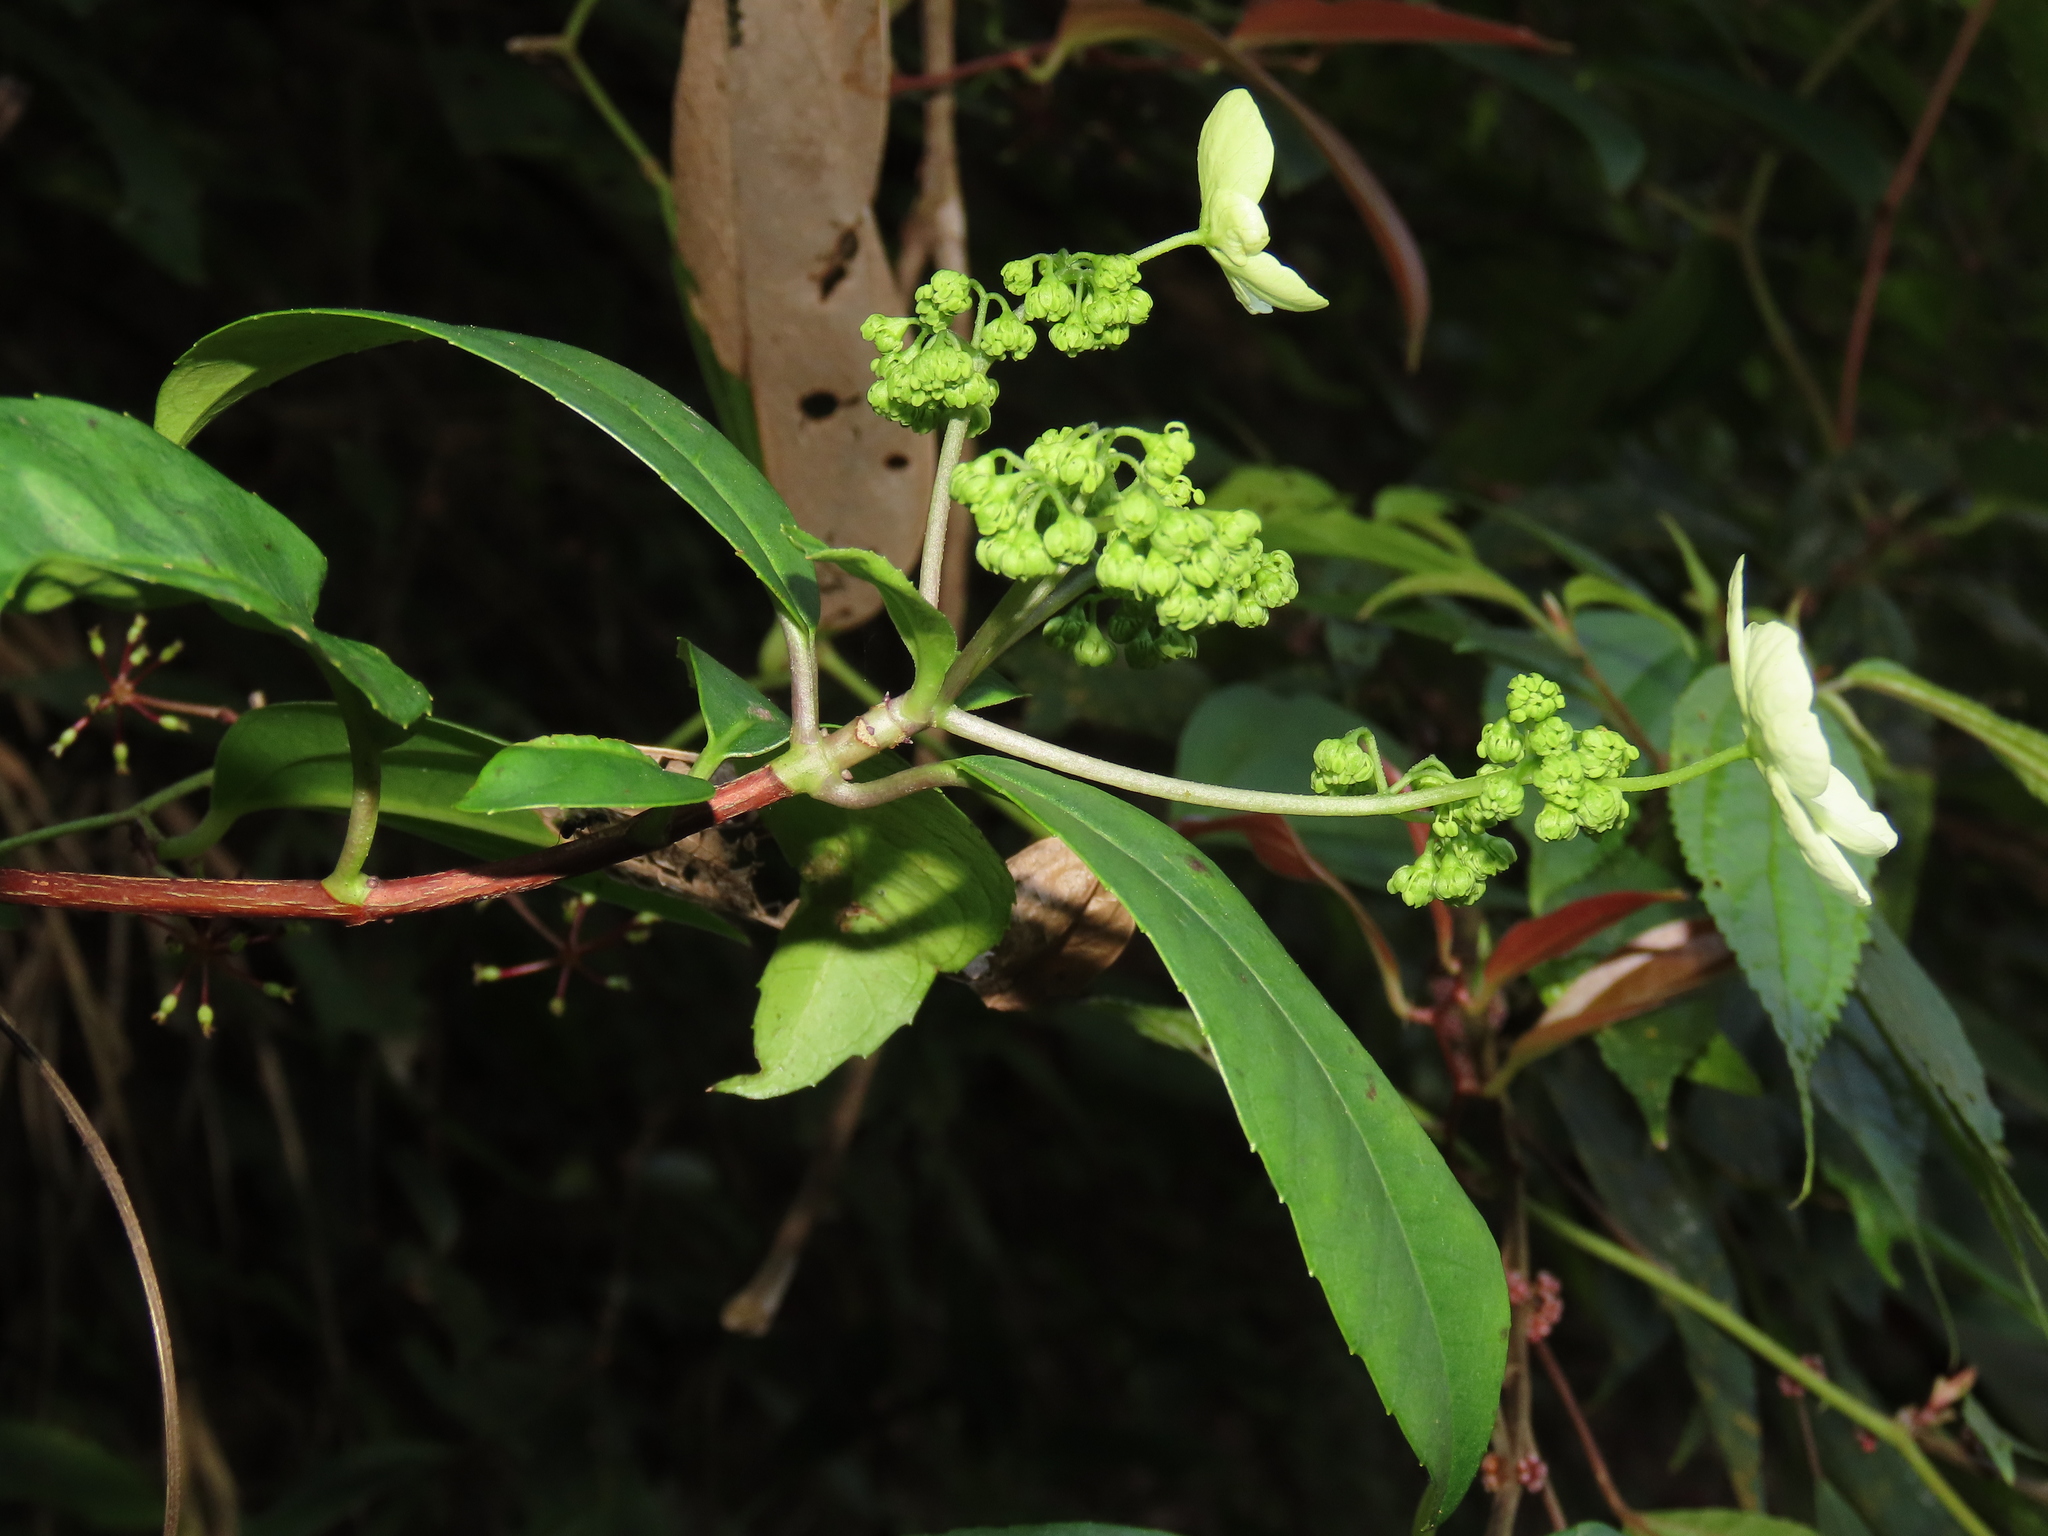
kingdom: Plantae
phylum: Tracheophyta
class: Magnoliopsida
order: Cornales
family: Hydrangeaceae
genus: Hydrangea
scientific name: Hydrangea chinensis
